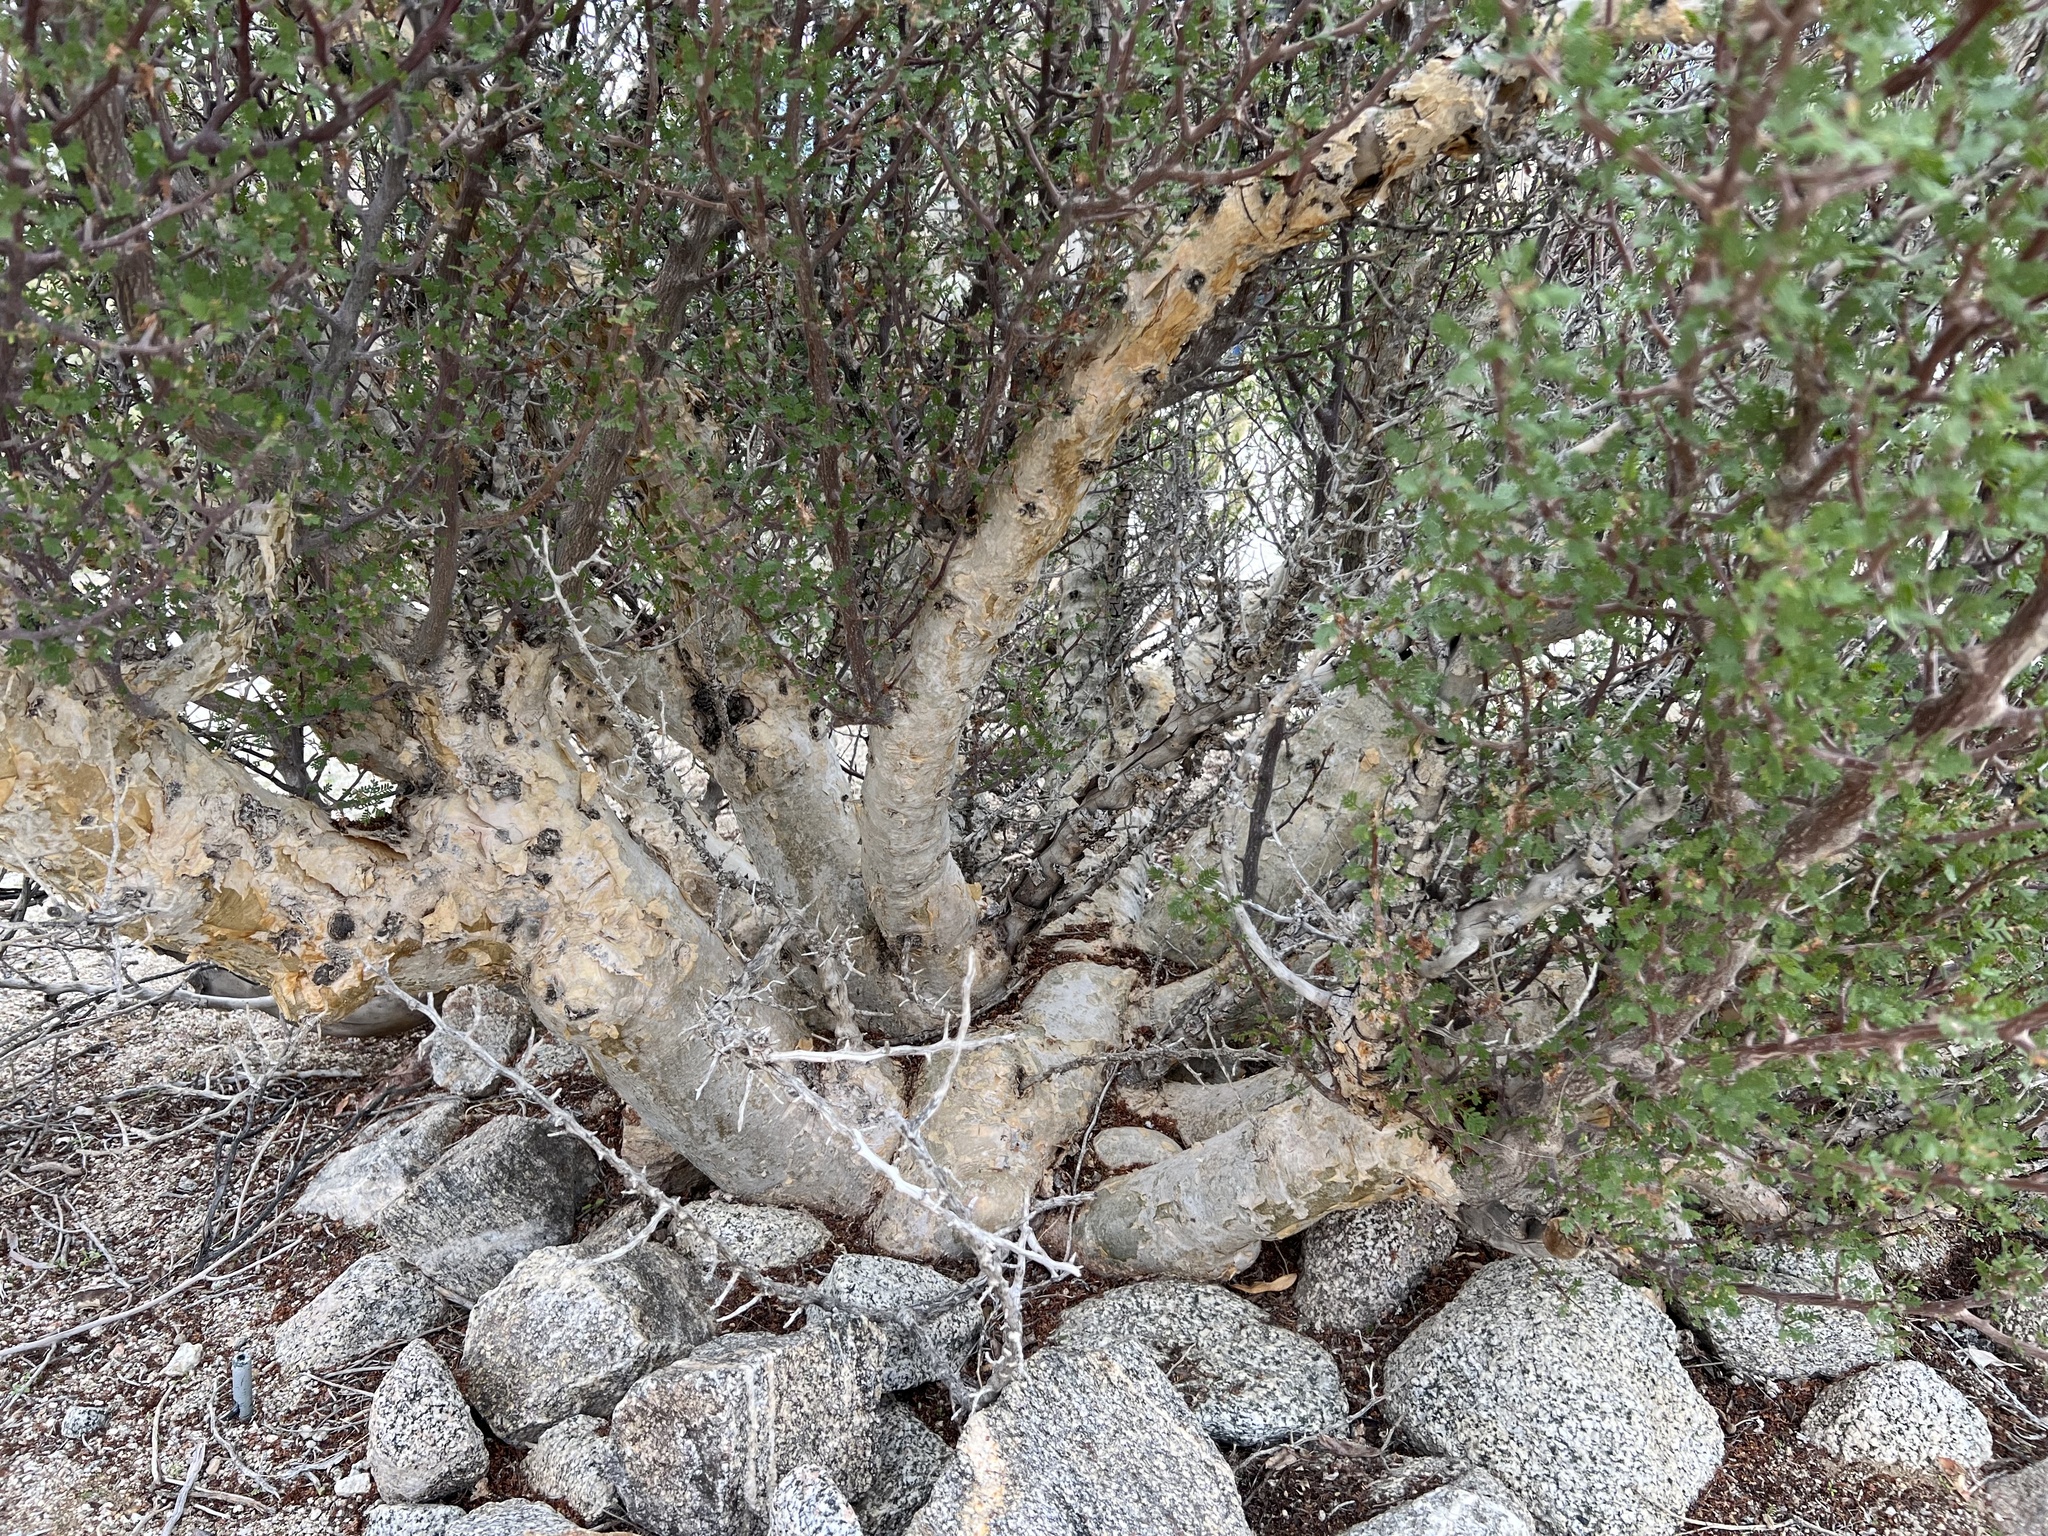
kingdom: Plantae
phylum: Tracheophyta
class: Magnoliopsida
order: Sapindales
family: Burseraceae
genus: Bursera
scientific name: Bursera microphylla
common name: Elephant tree
